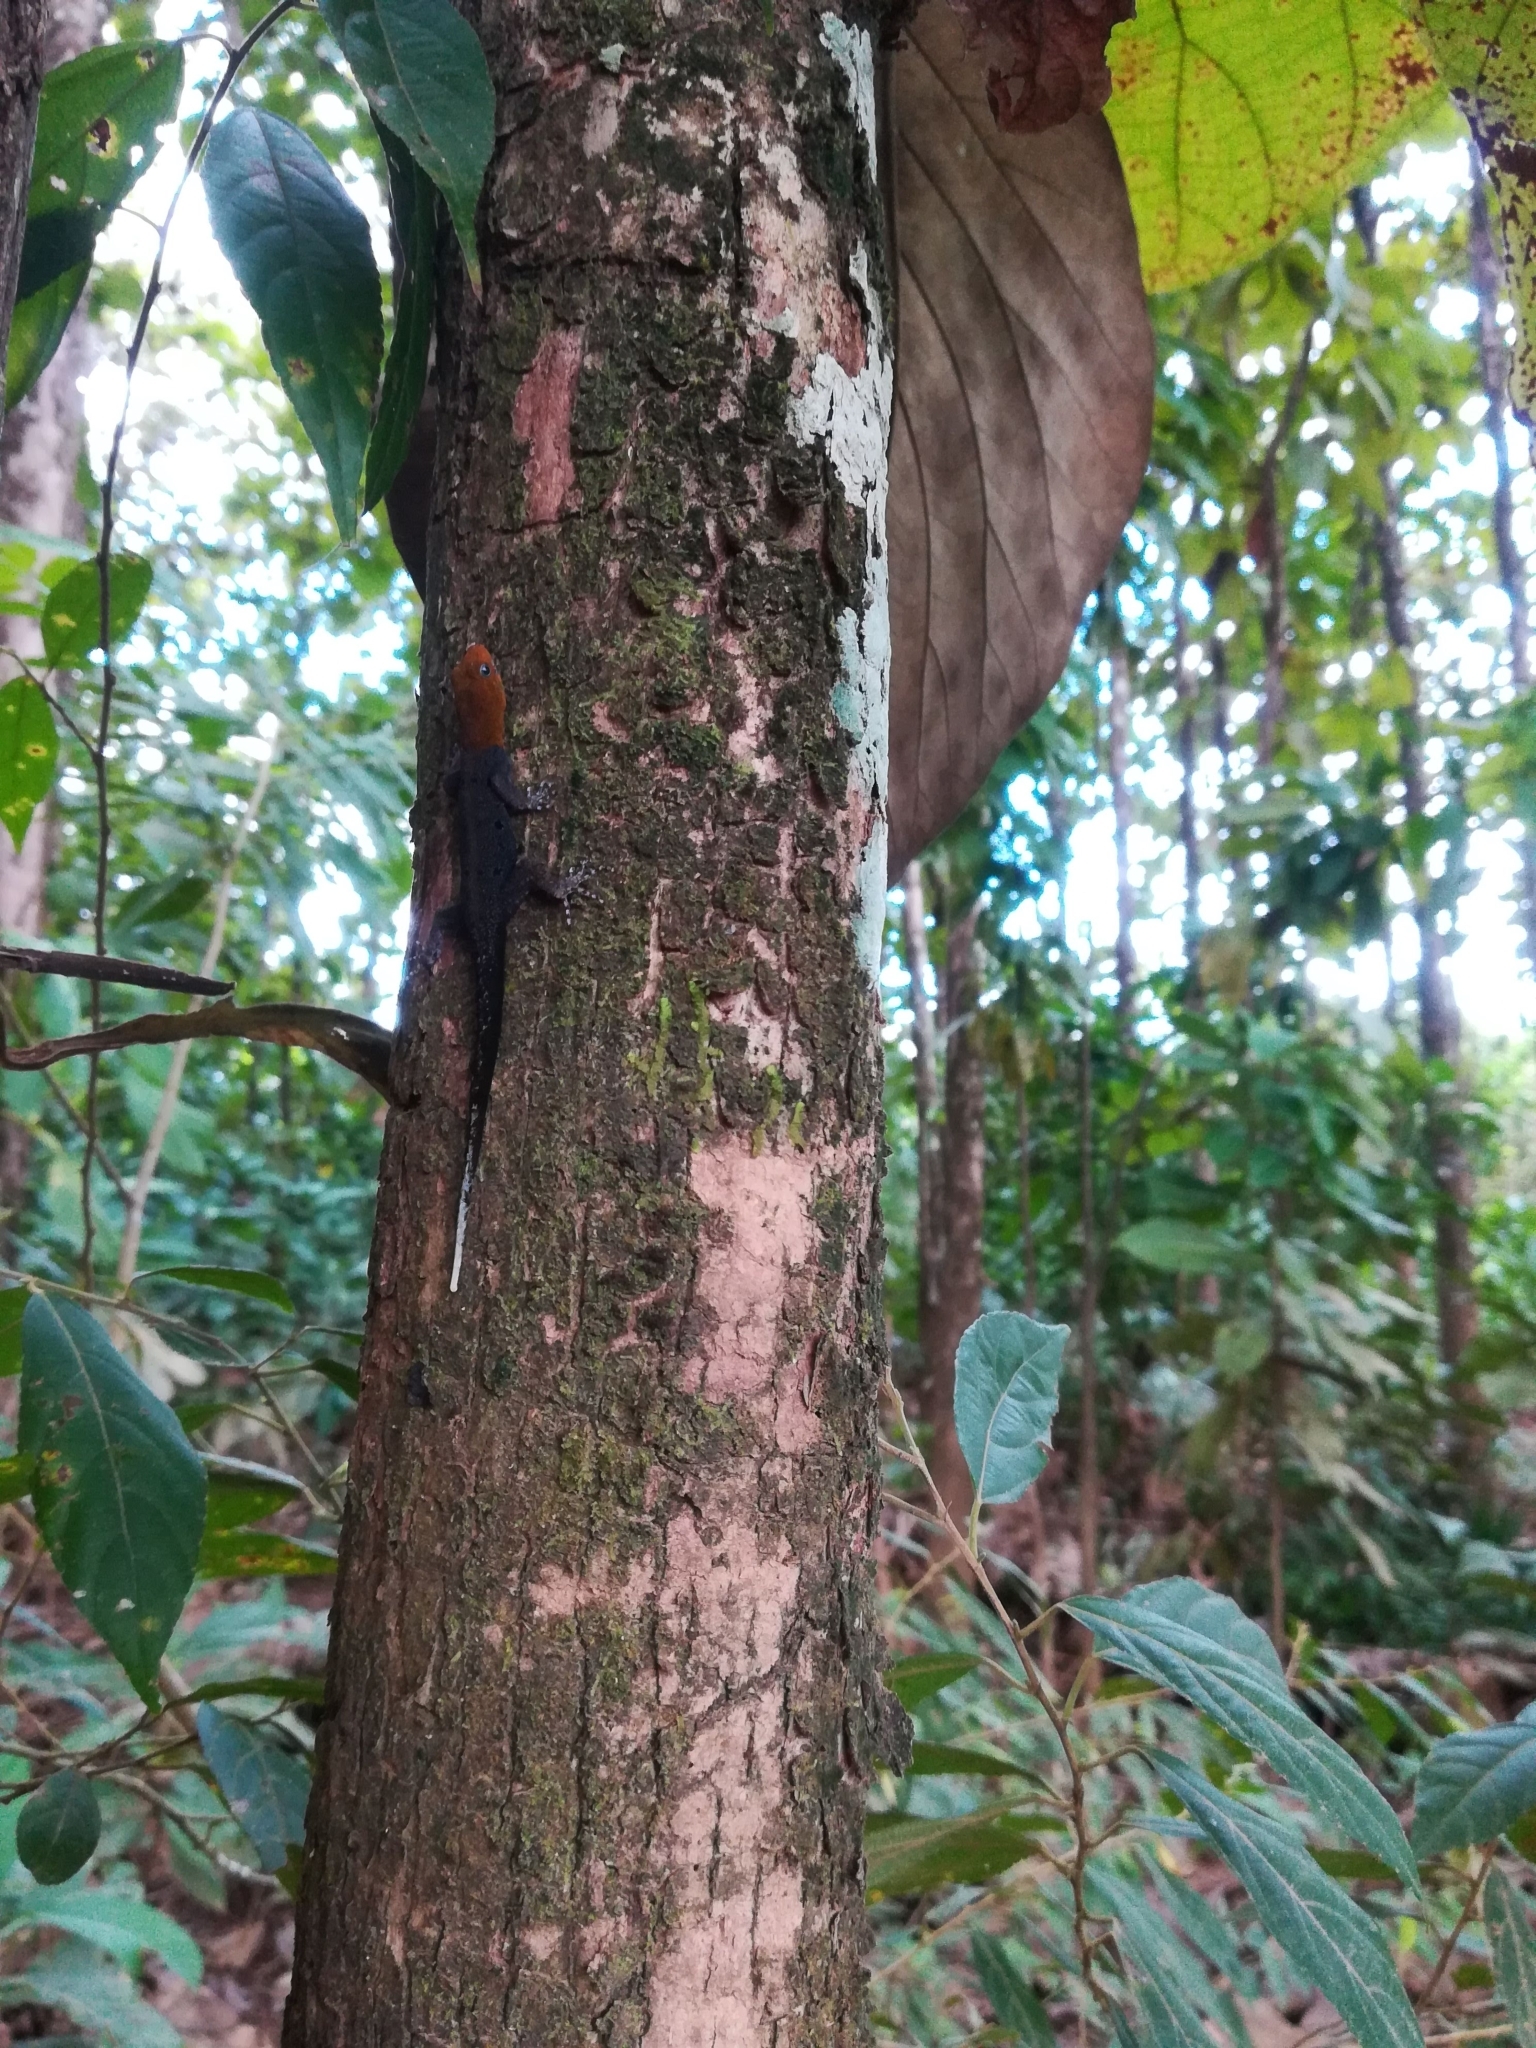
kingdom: Animalia
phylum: Chordata
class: Squamata
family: Sphaerodactylidae
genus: Gonatodes
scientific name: Gonatodes albogularis
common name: Yellow-headed gecko
